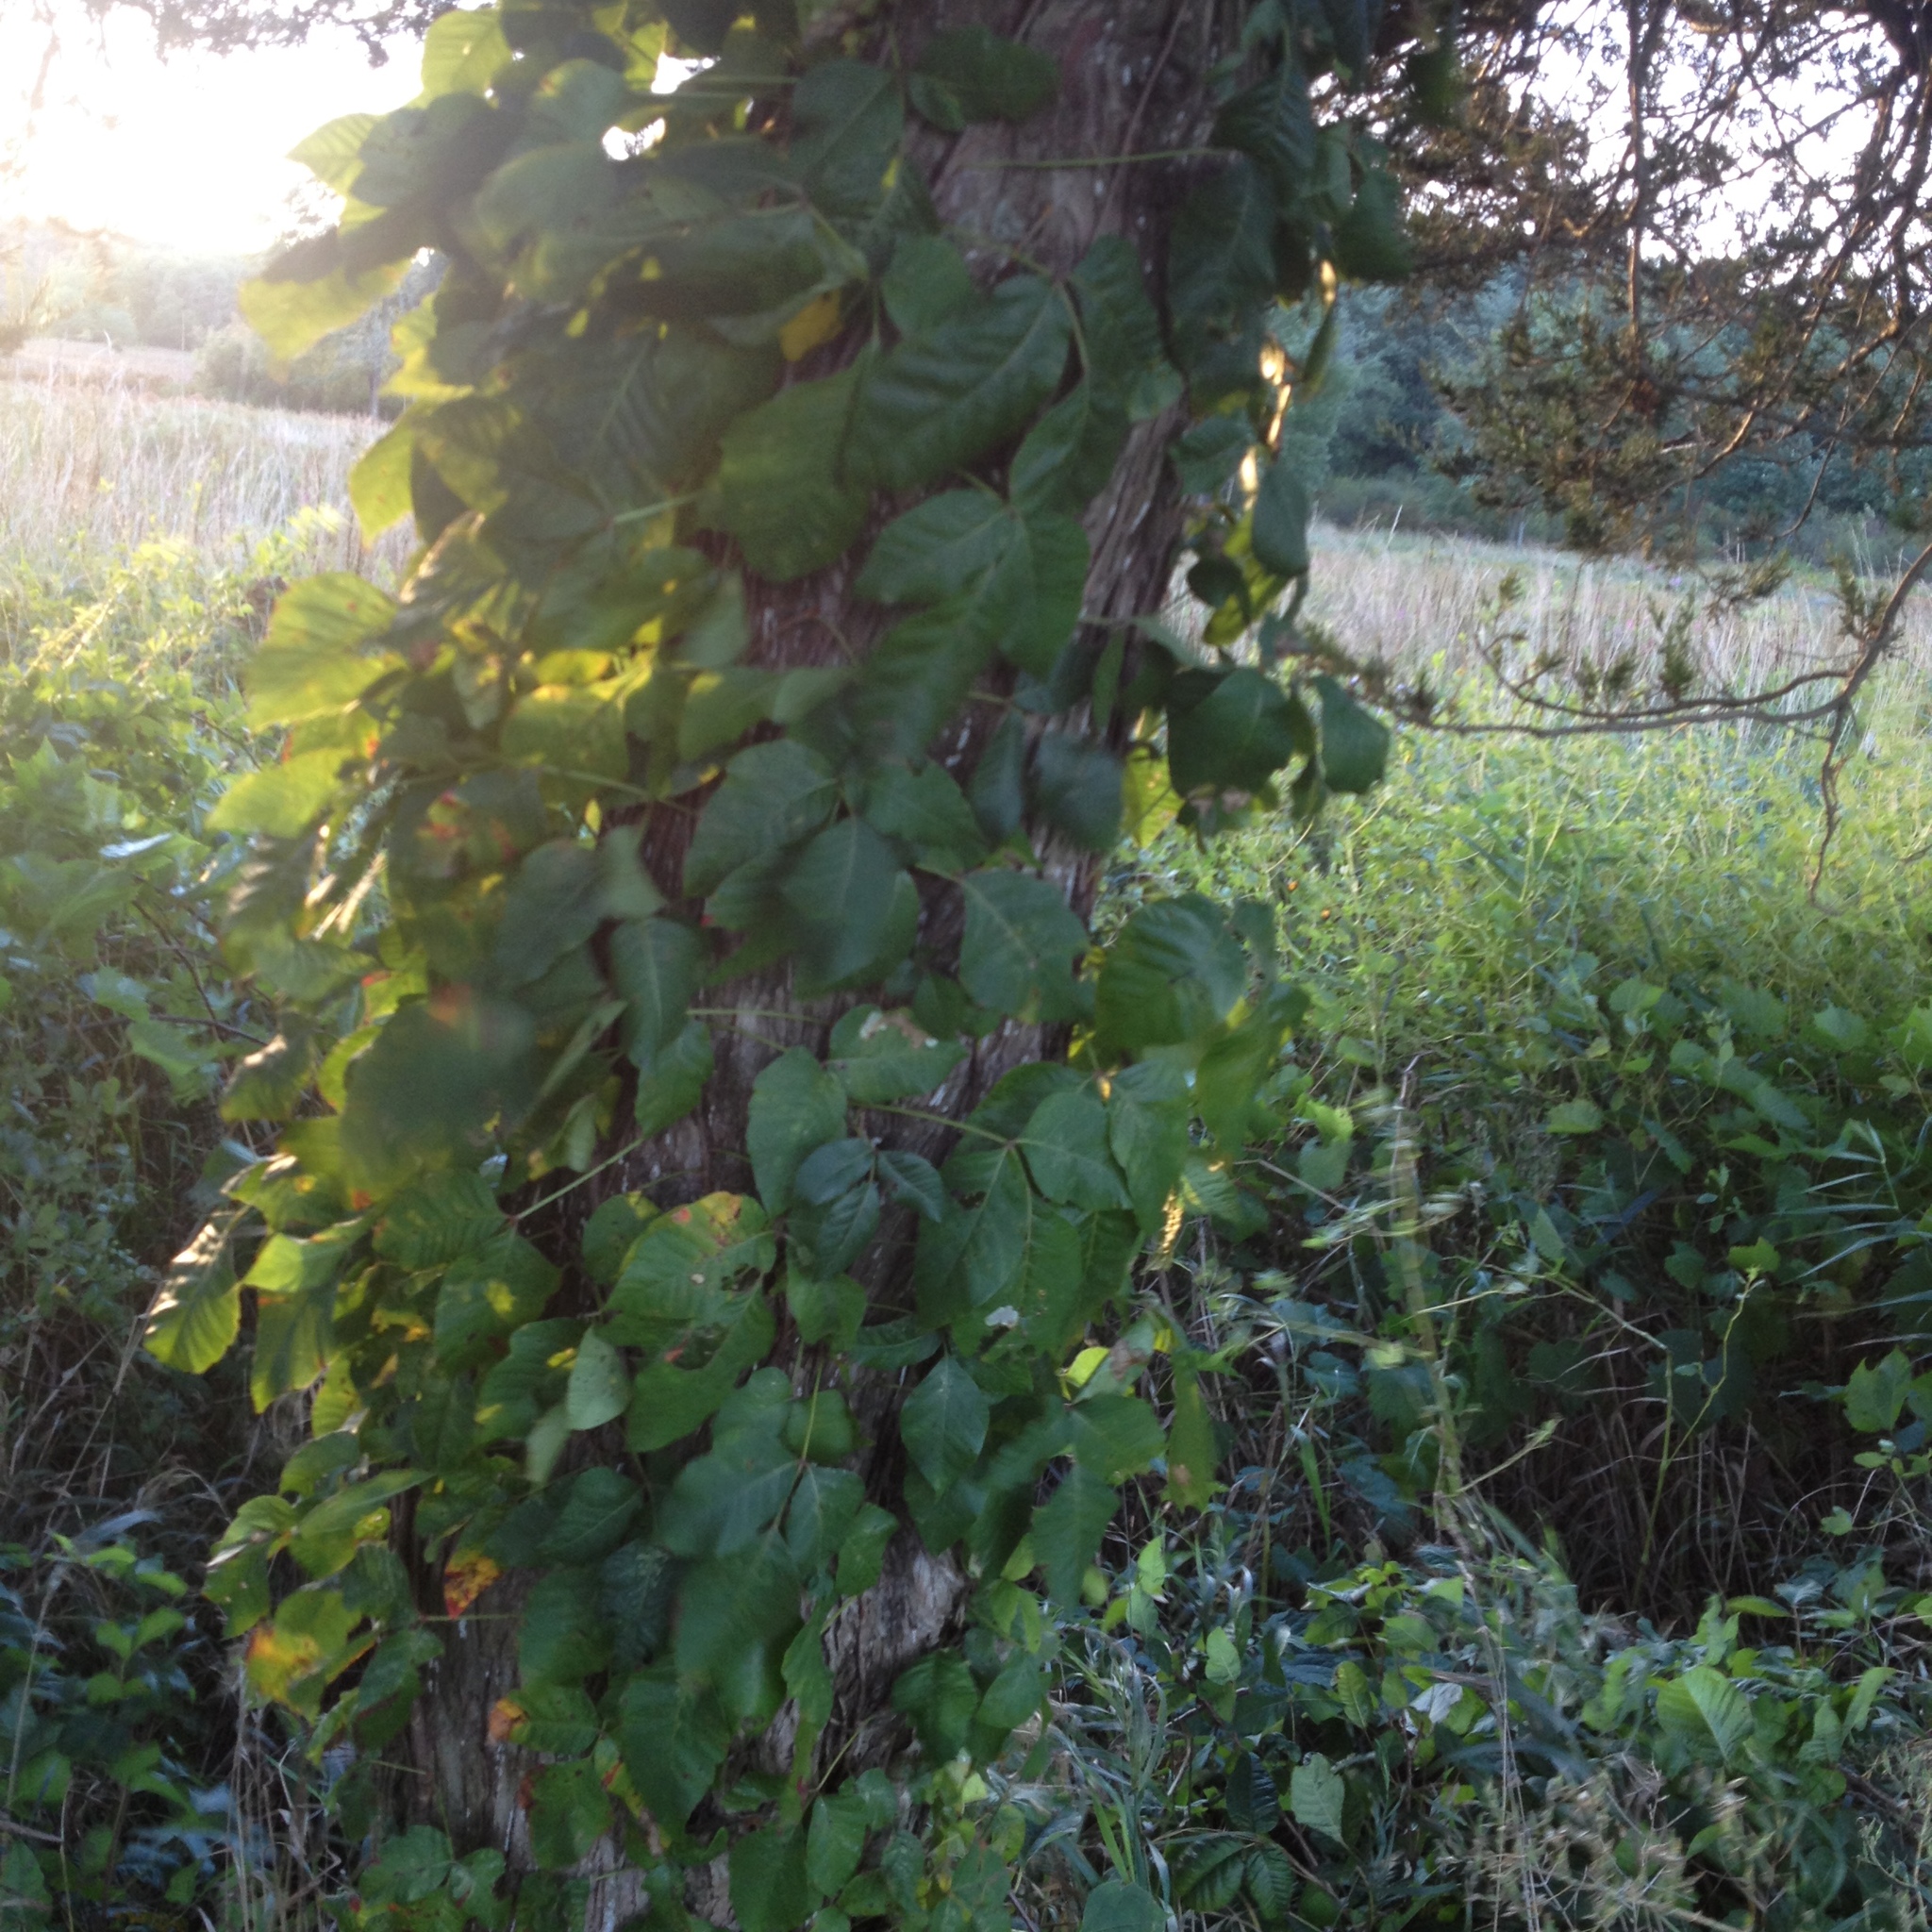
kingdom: Plantae
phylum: Tracheophyta
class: Magnoliopsida
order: Sapindales
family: Anacardiaceae
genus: Toxicodendron
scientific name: Toxicodendron radicans
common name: Poison ivy
